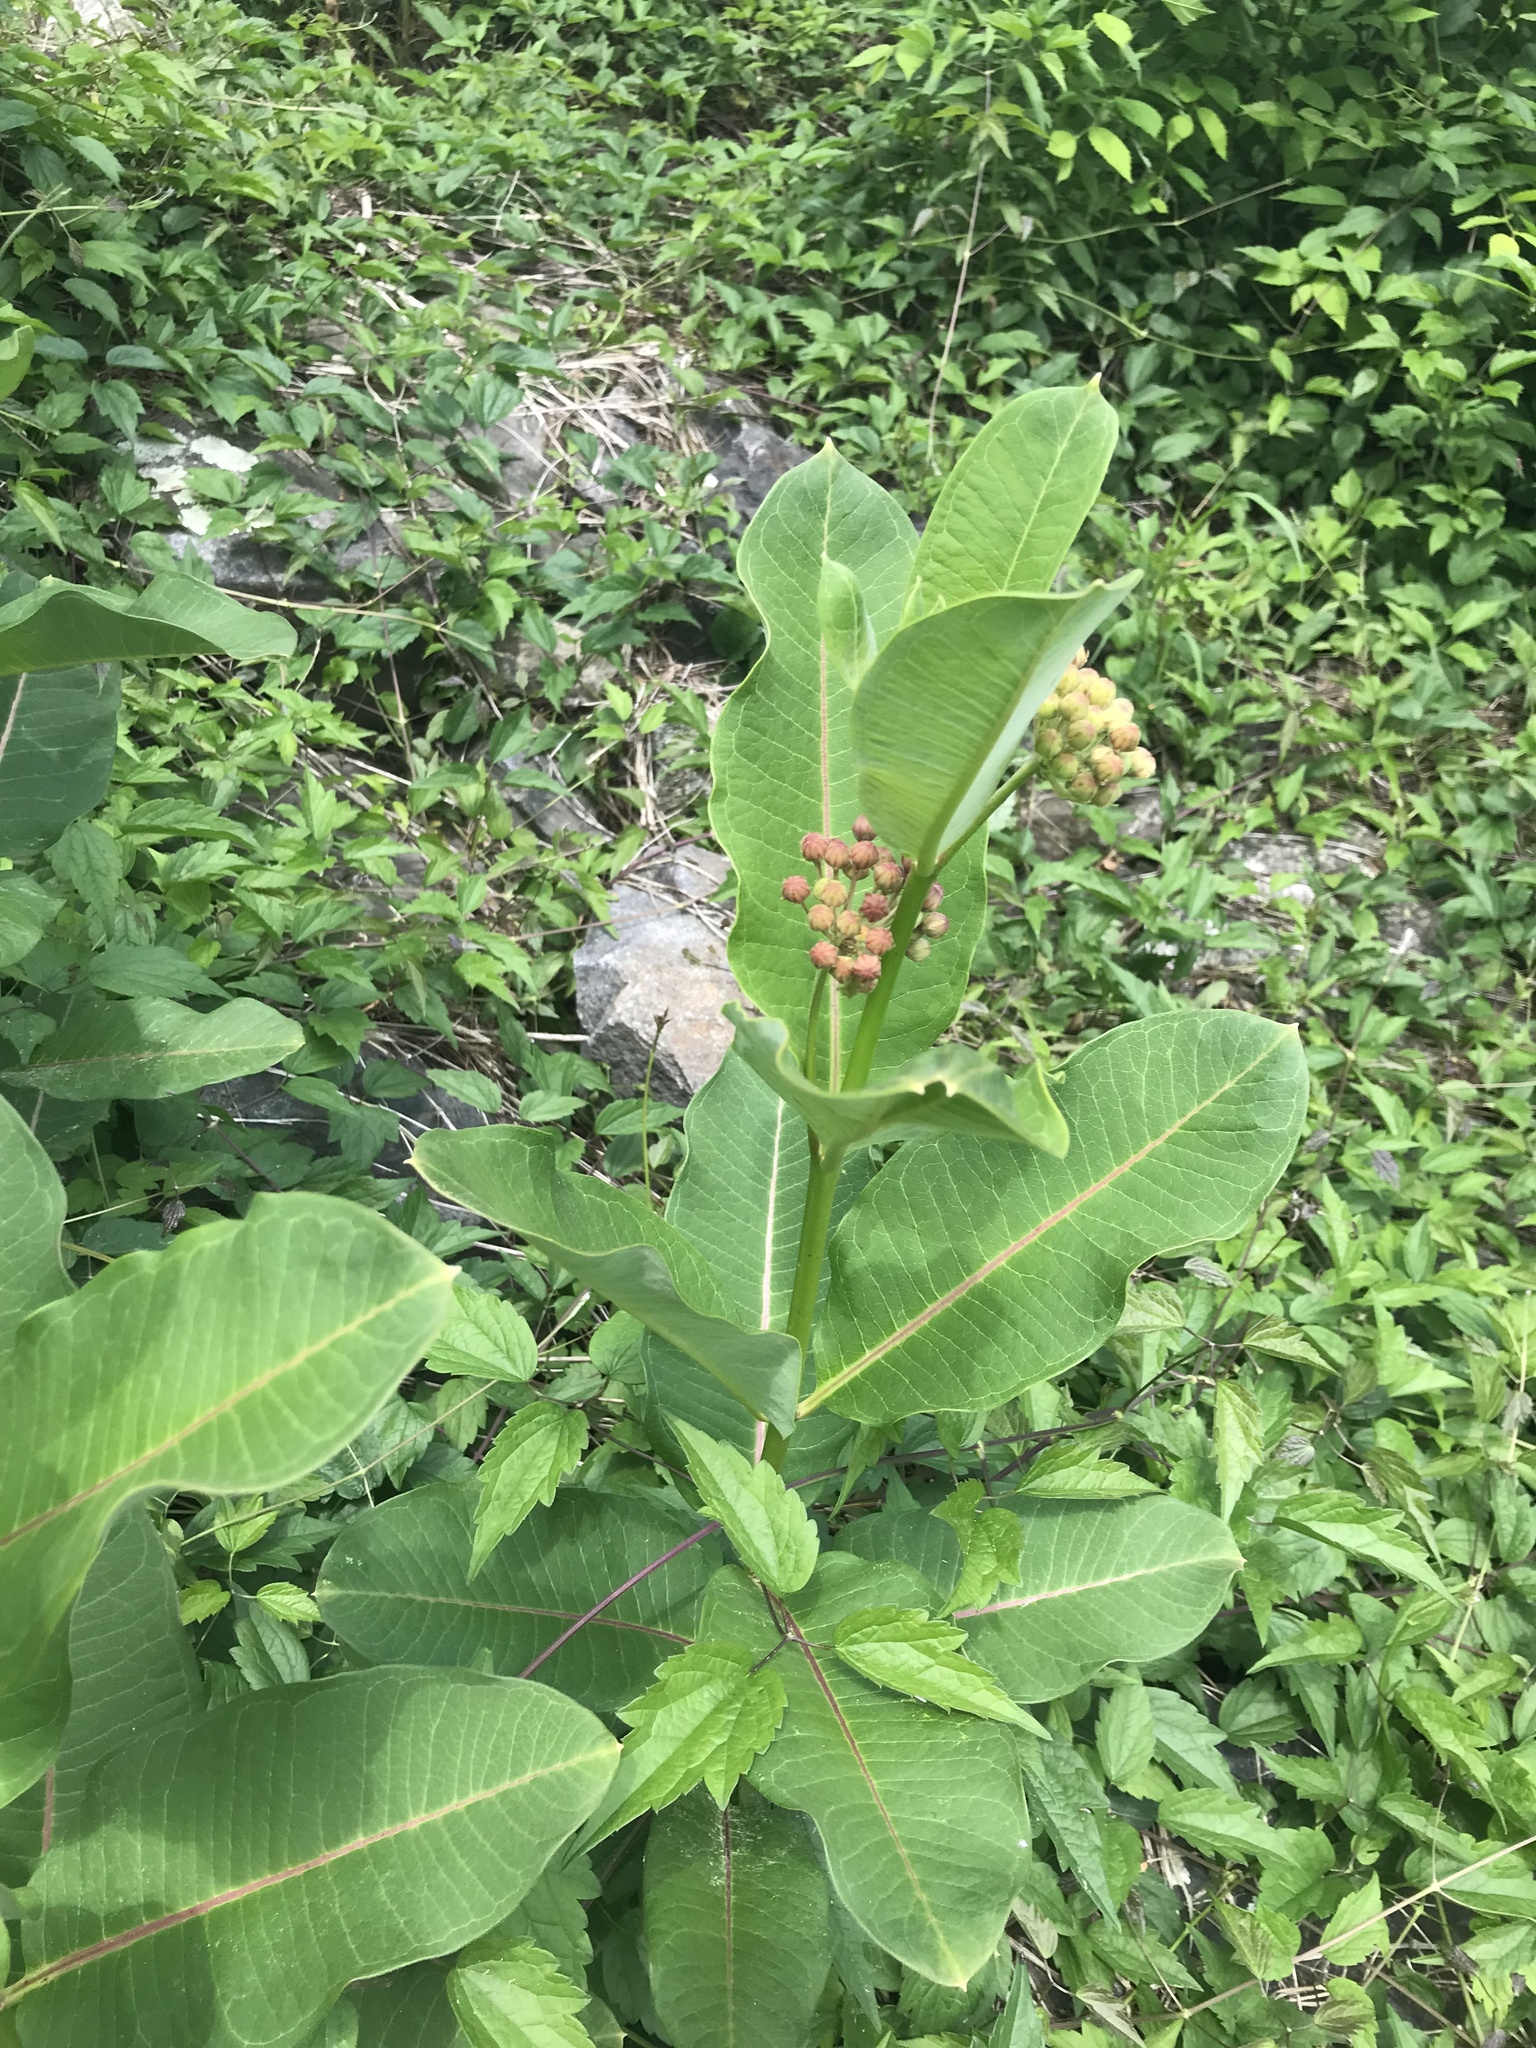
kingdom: Plantae
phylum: Tracheophyta
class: Magnoliopsida
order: Gentianales
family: Apocynaceae
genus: Asclepias
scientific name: Asclepias syriaca
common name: Common milkweed
